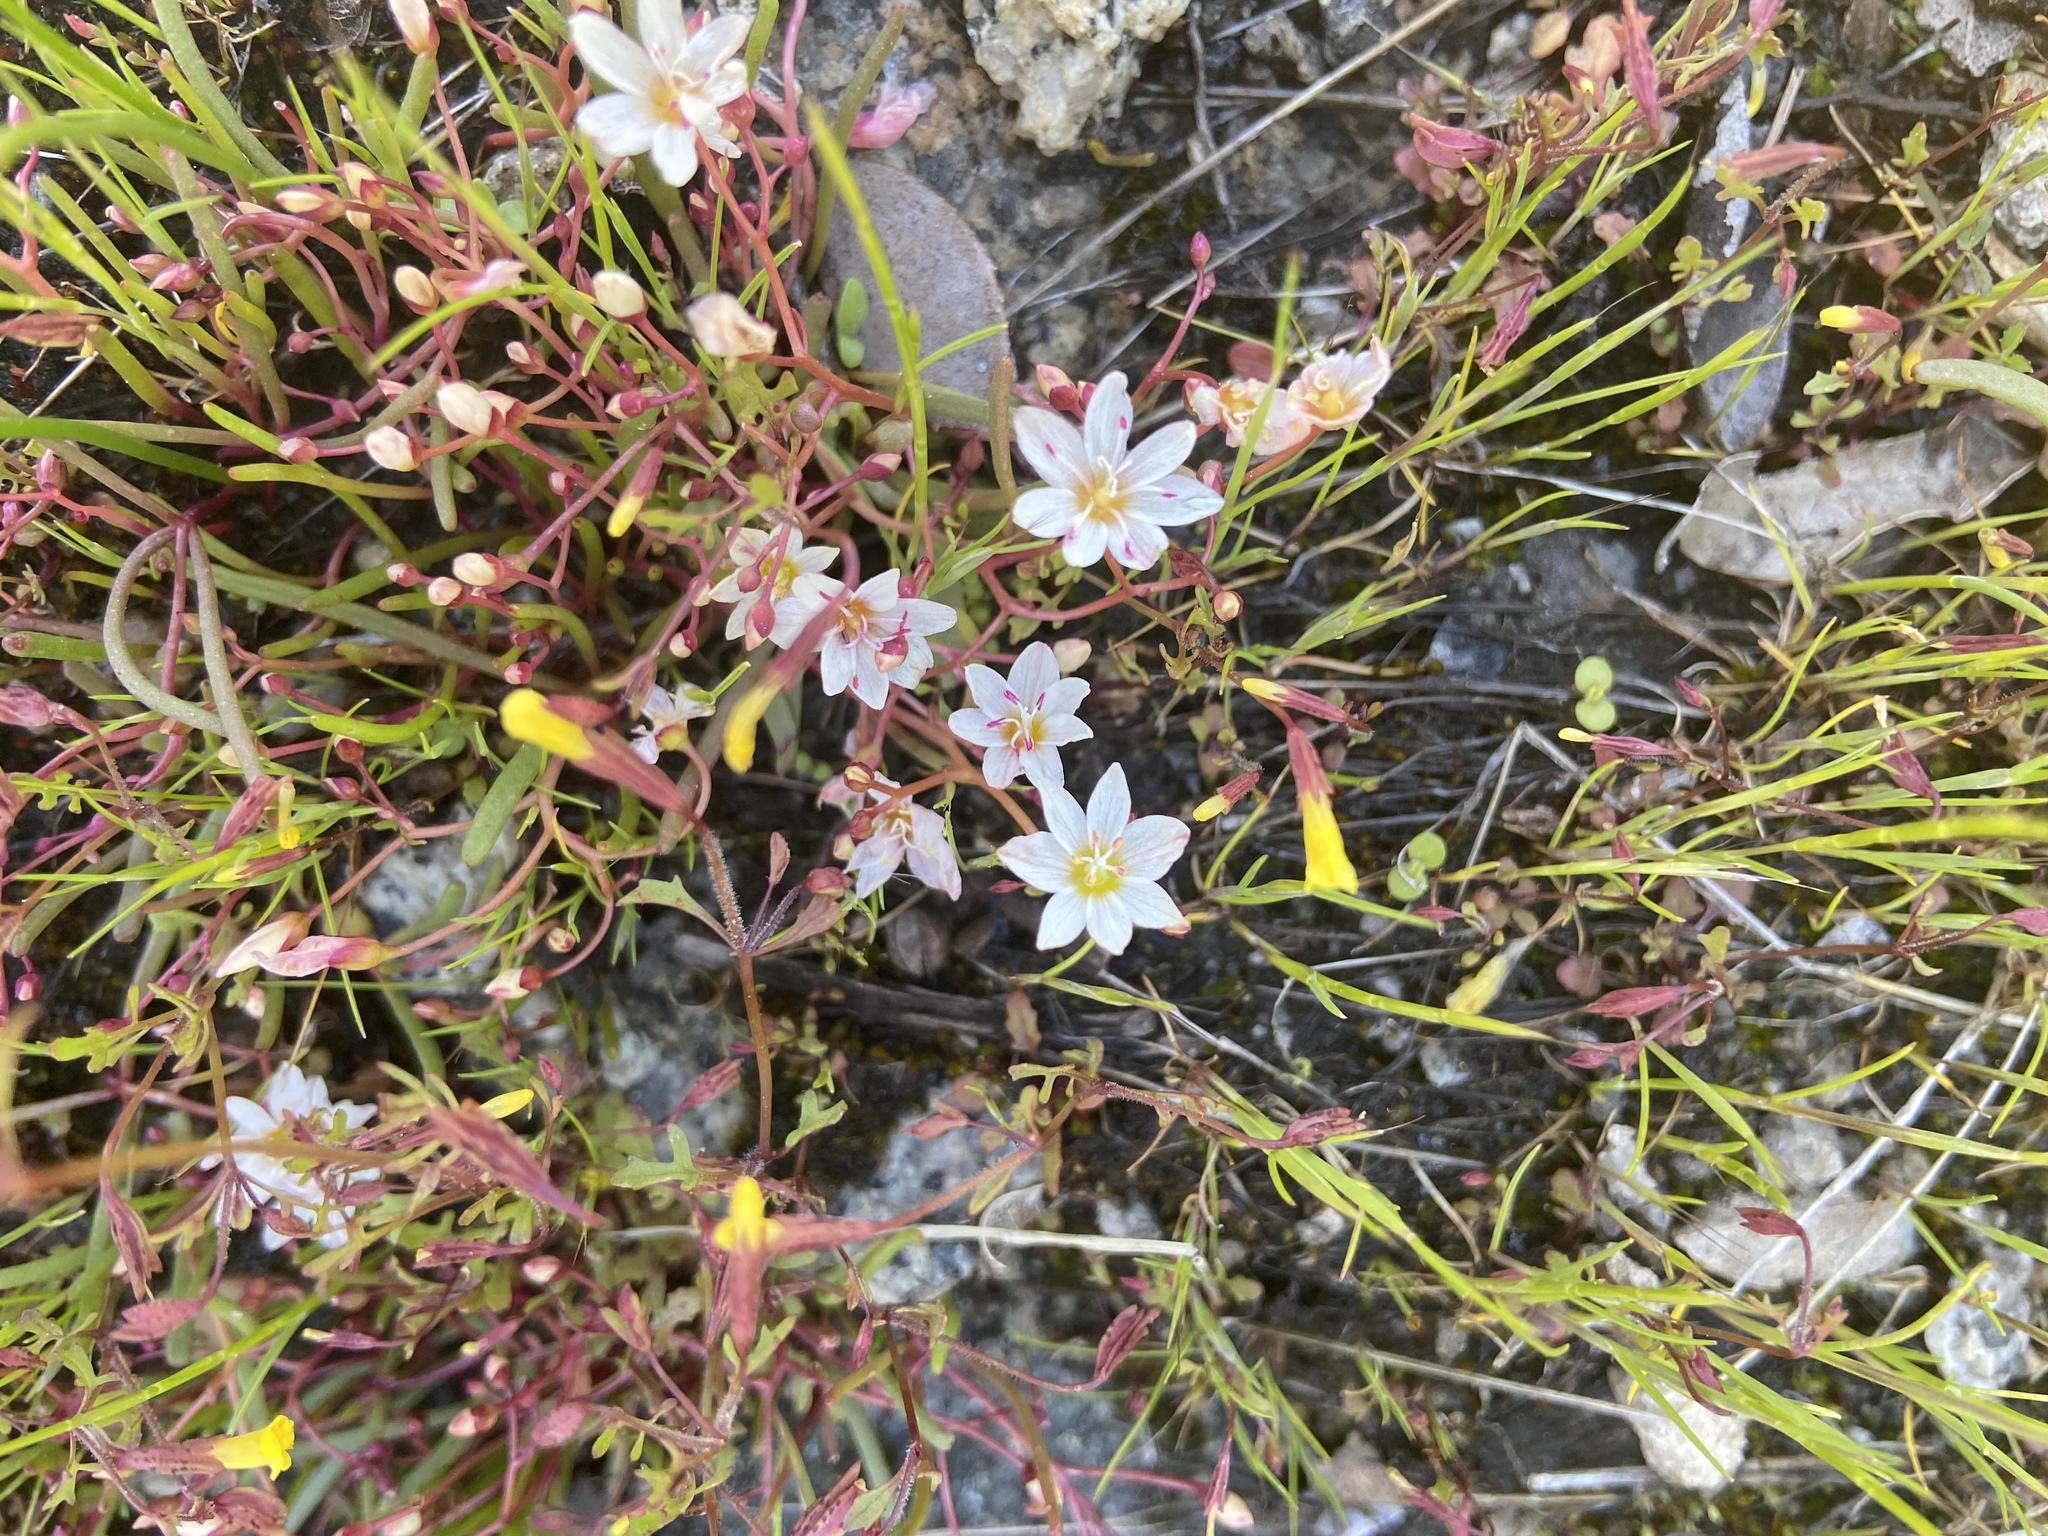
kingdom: Plantae
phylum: Tracheophyta
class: Magnoliopsida
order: Caryophyllales
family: Montiaceae
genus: Lewisia
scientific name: Lewisia triphylla
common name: Three-leaved bitterroot
